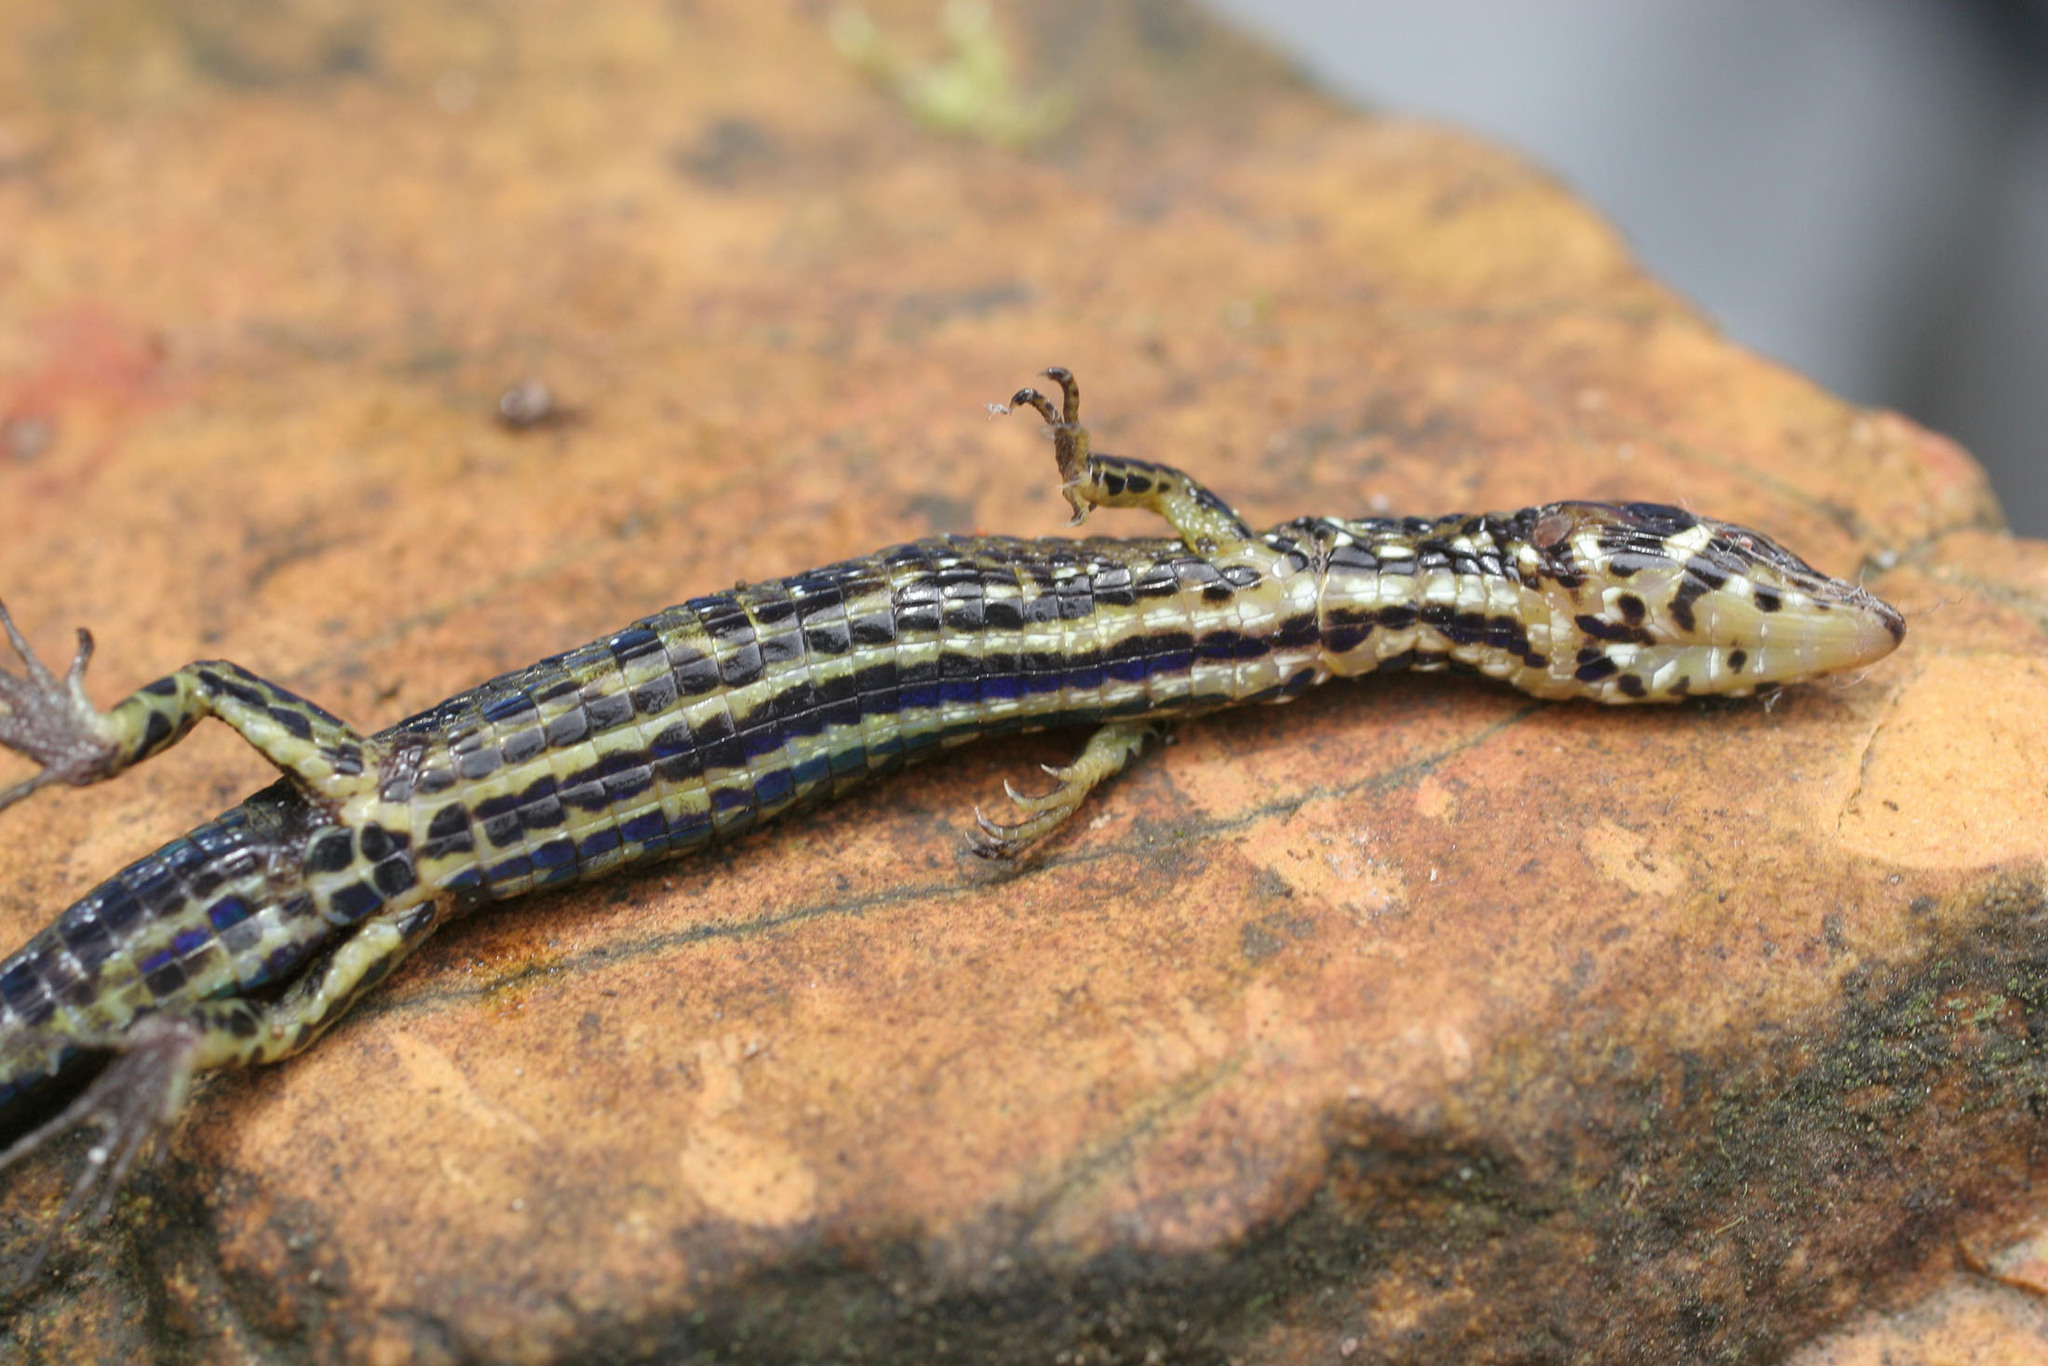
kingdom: Animalia
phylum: Chordata
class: Squamata
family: Gymnophthalmidae
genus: Andinosaura
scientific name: Andinosaura oculata
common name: Tropical lightbulb lizard
